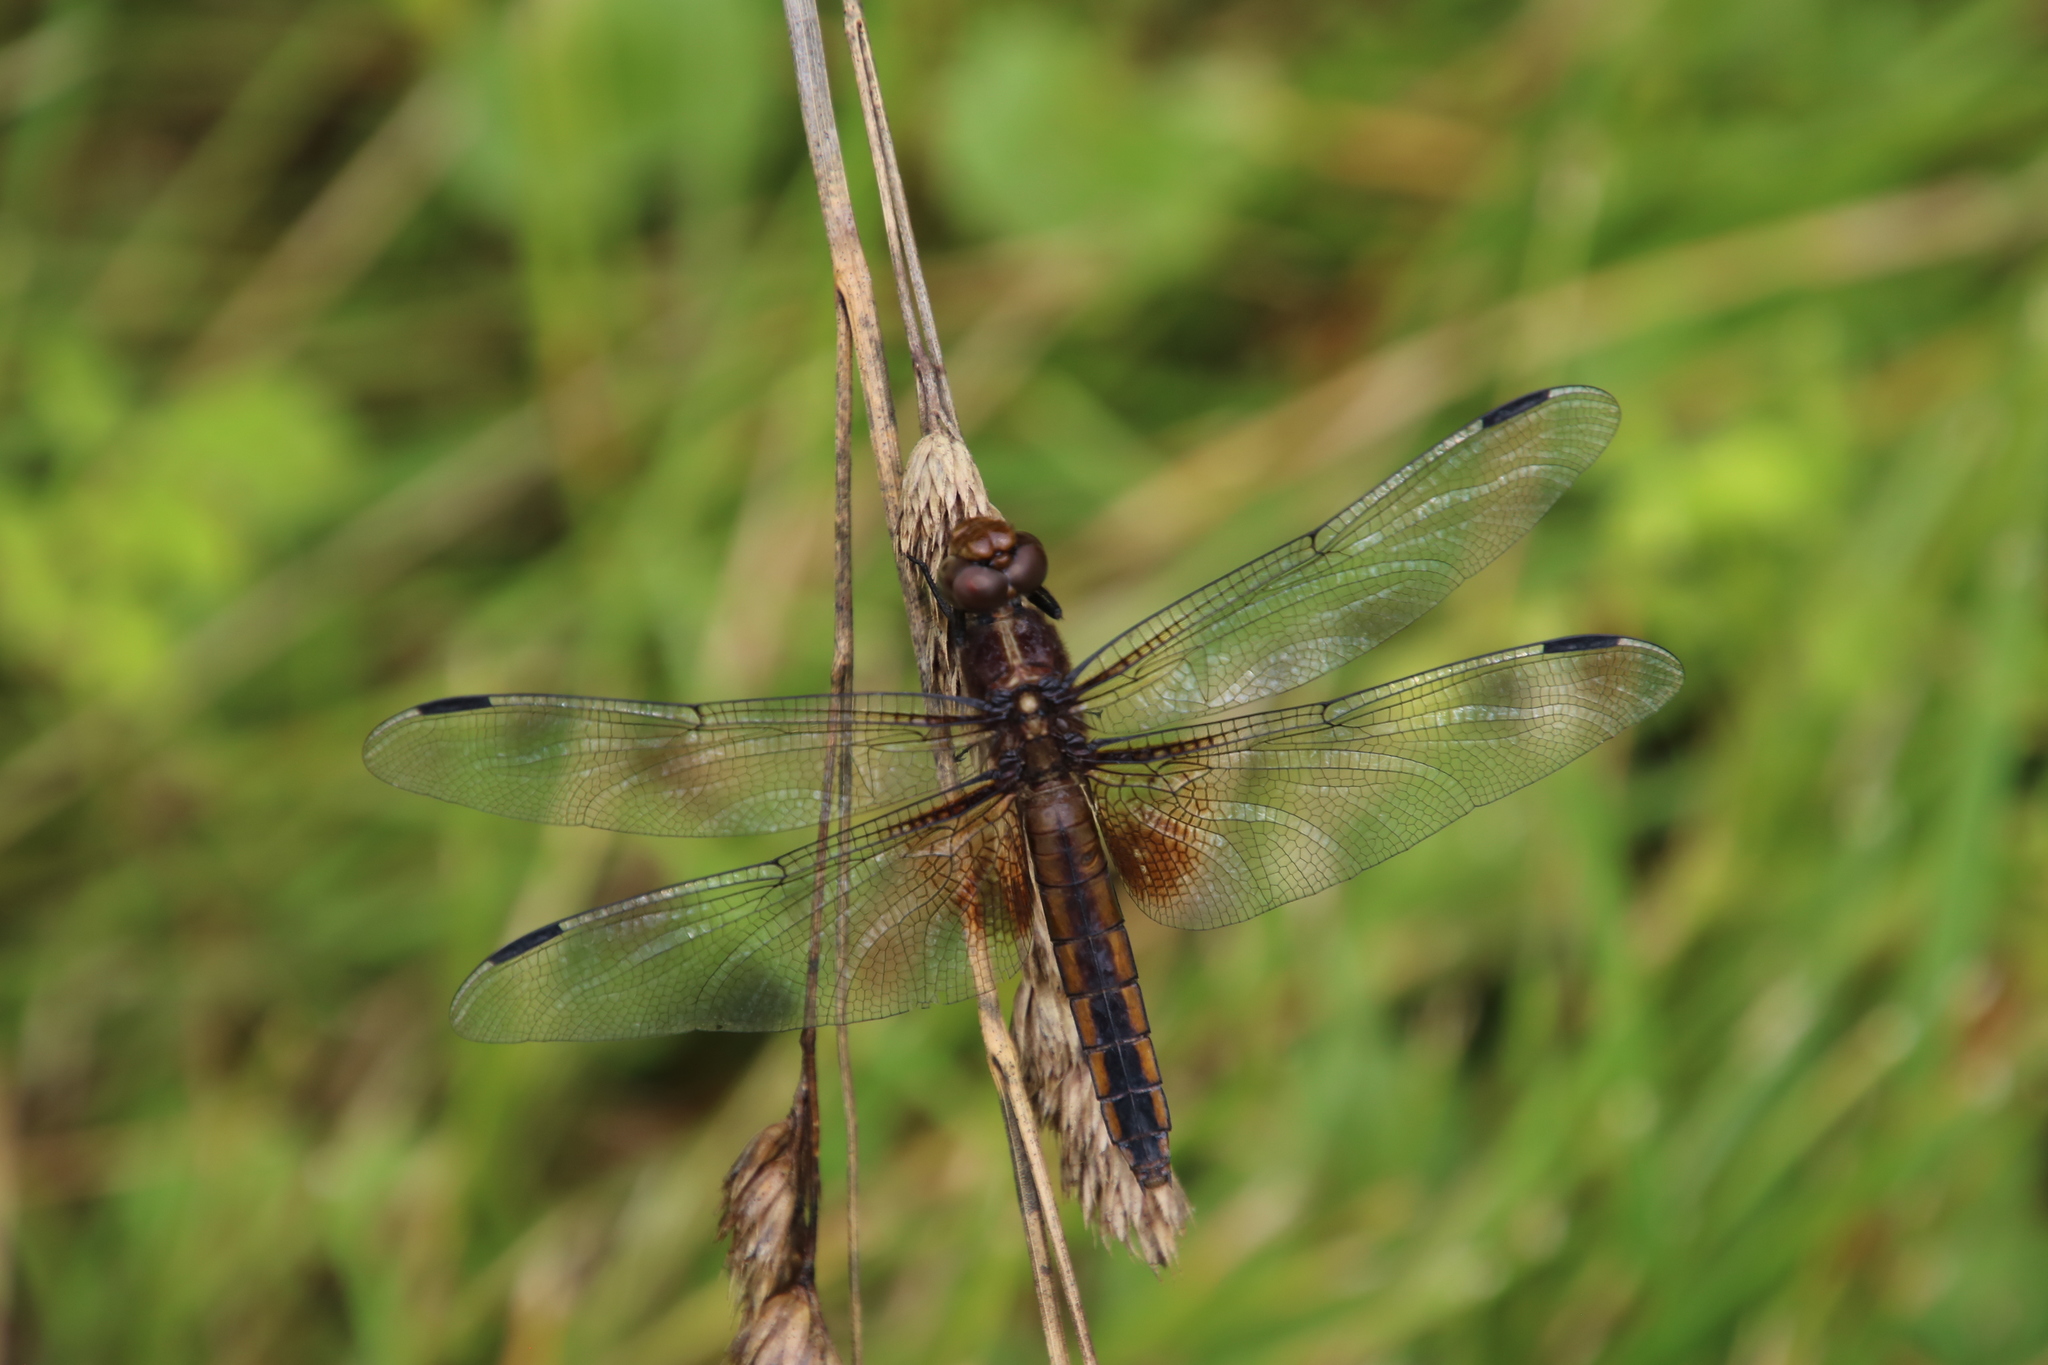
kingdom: Animalia
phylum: Arthropoda
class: Insecta
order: Odonata
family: Libellulidae
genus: Libellula
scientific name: Libellula luctuosa
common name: Widow skimmer
